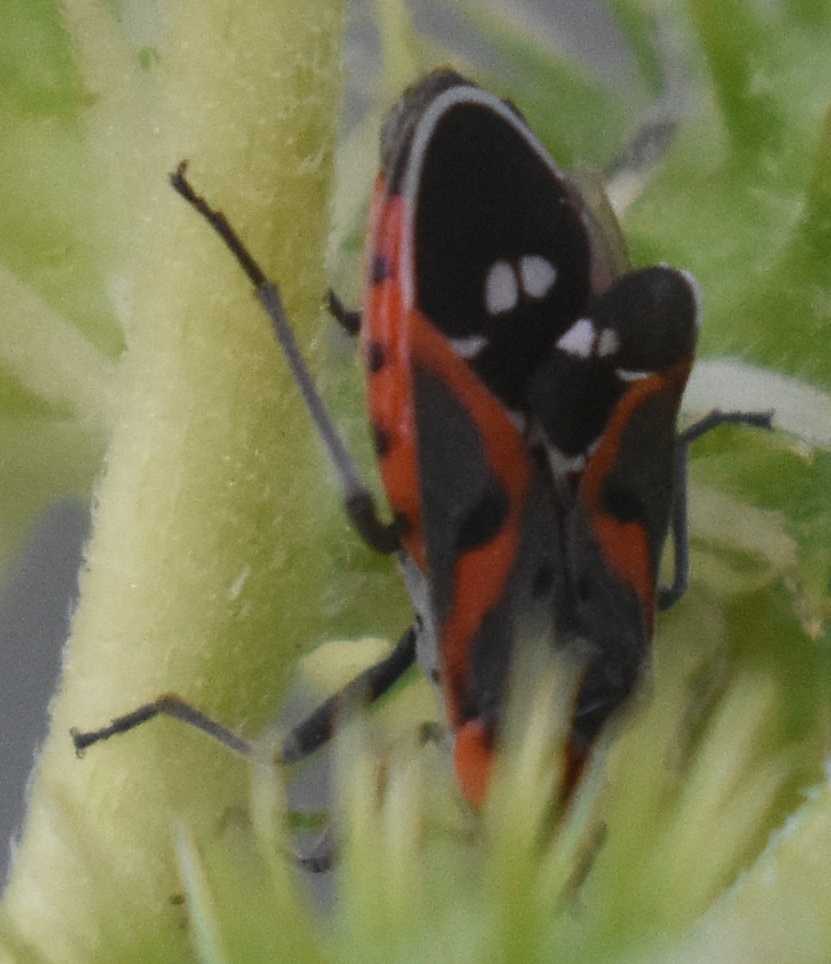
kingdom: Animalia
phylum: Arthropoda
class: Insecta
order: Hemiptera
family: Lygaeidae
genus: Lygaeus
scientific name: Lygaeus kalmii
